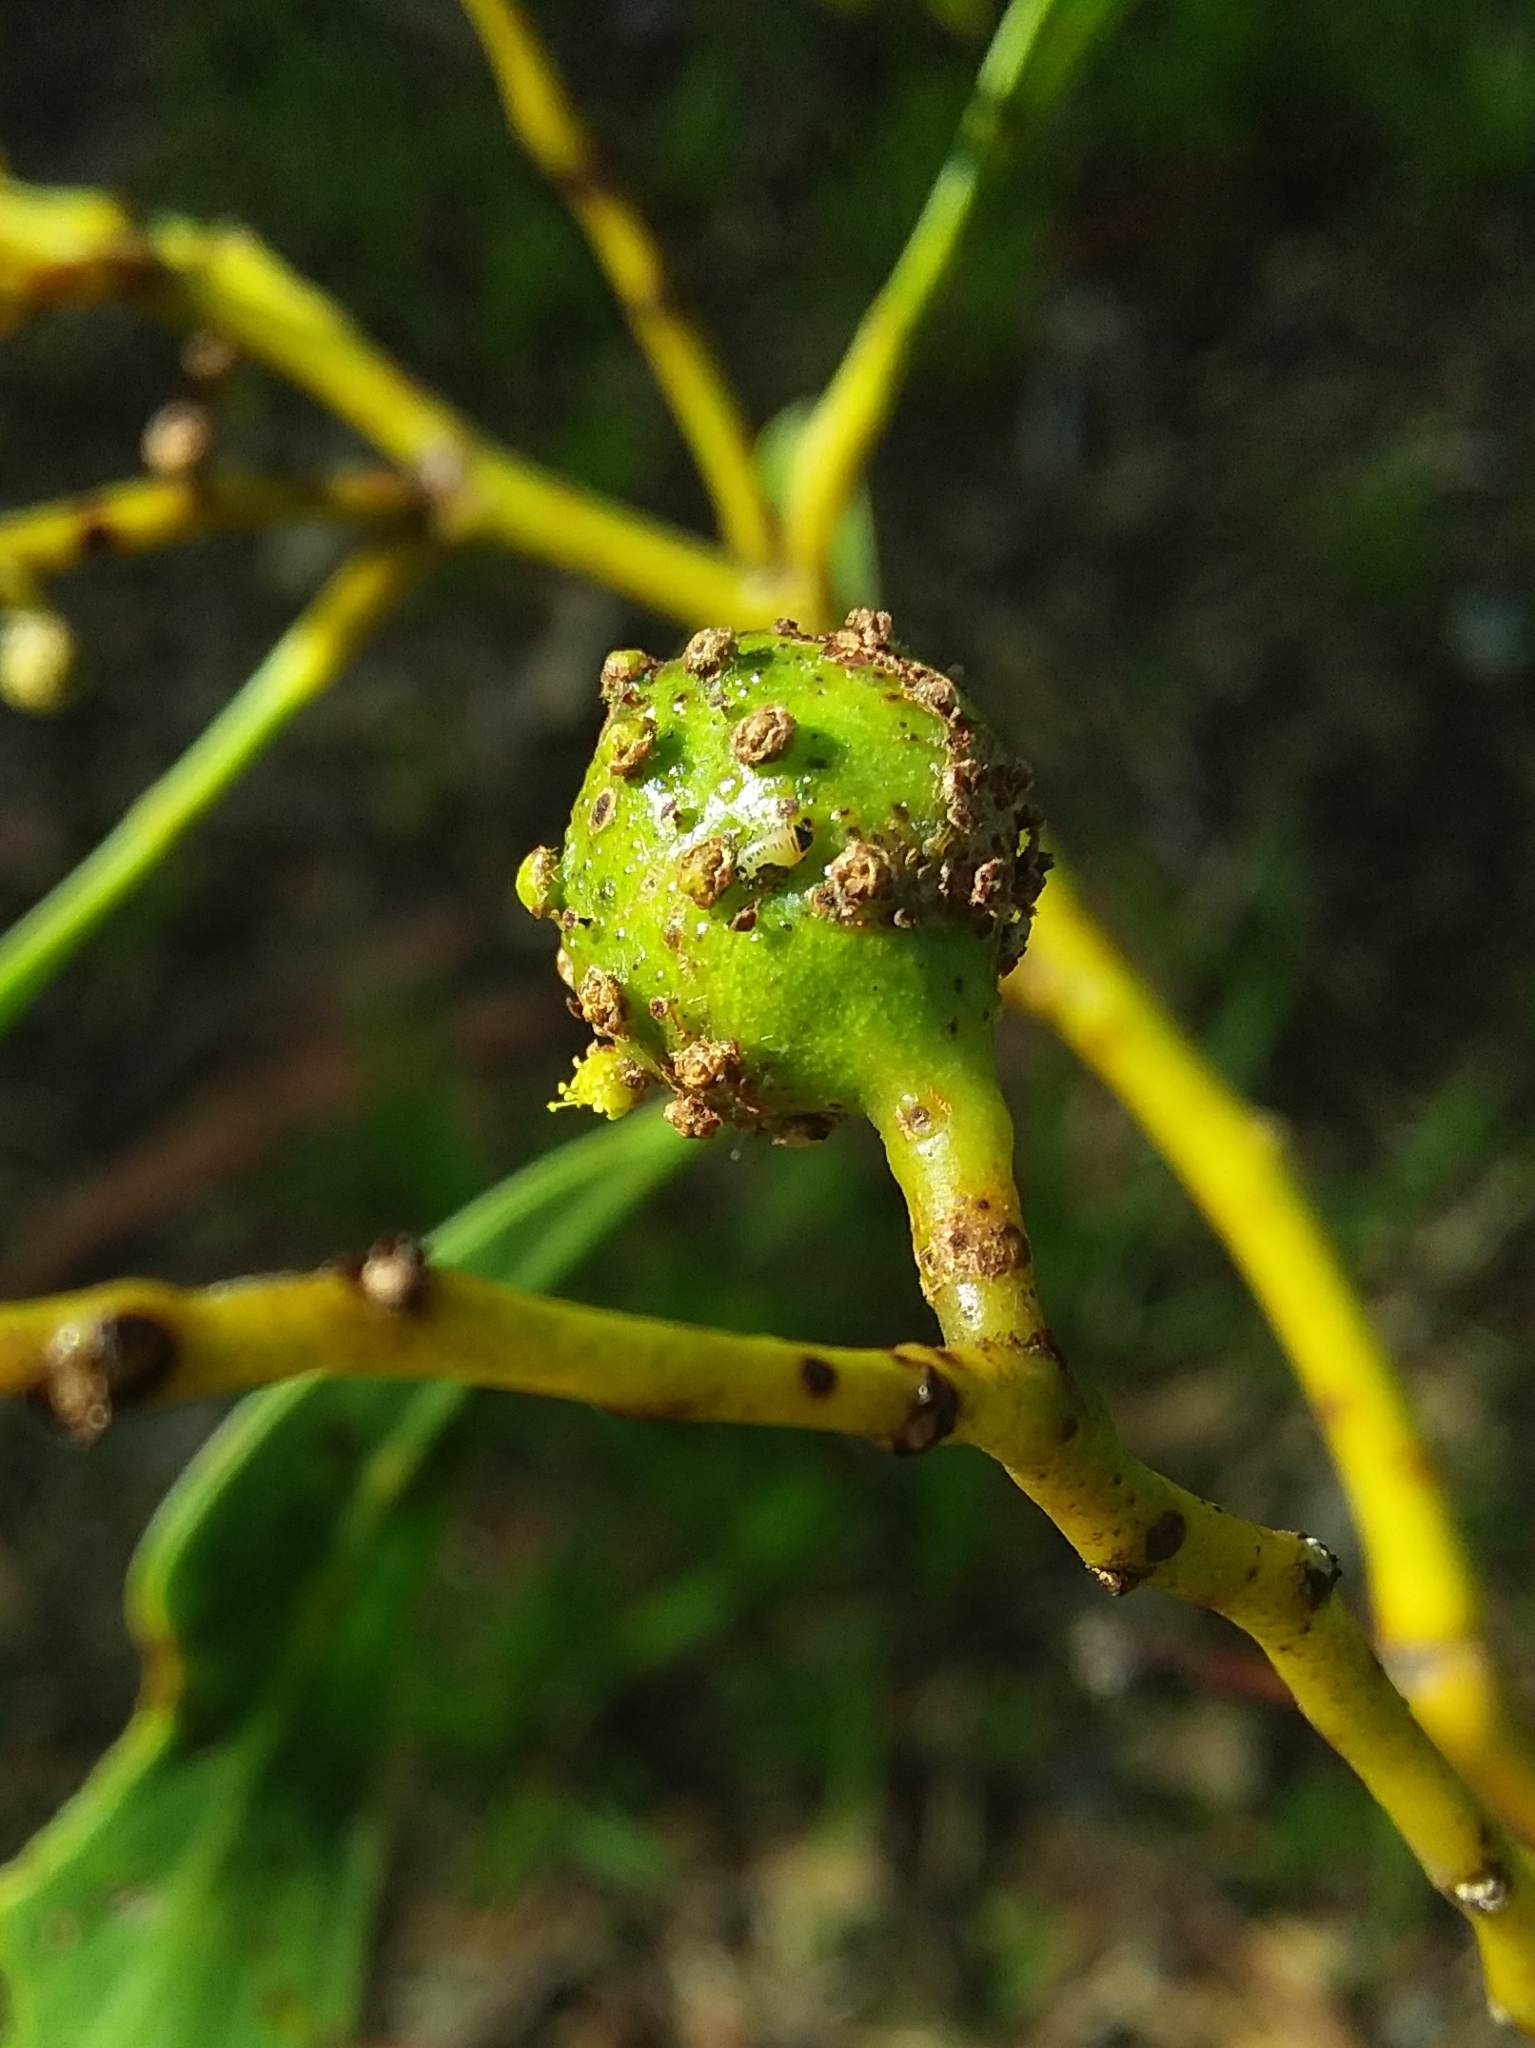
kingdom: Animalia
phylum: Arthropoda
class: Insecta
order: Hymenoptera
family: Pteromalidae
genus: Trichilogaster
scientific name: Trichilogaster signiventris
